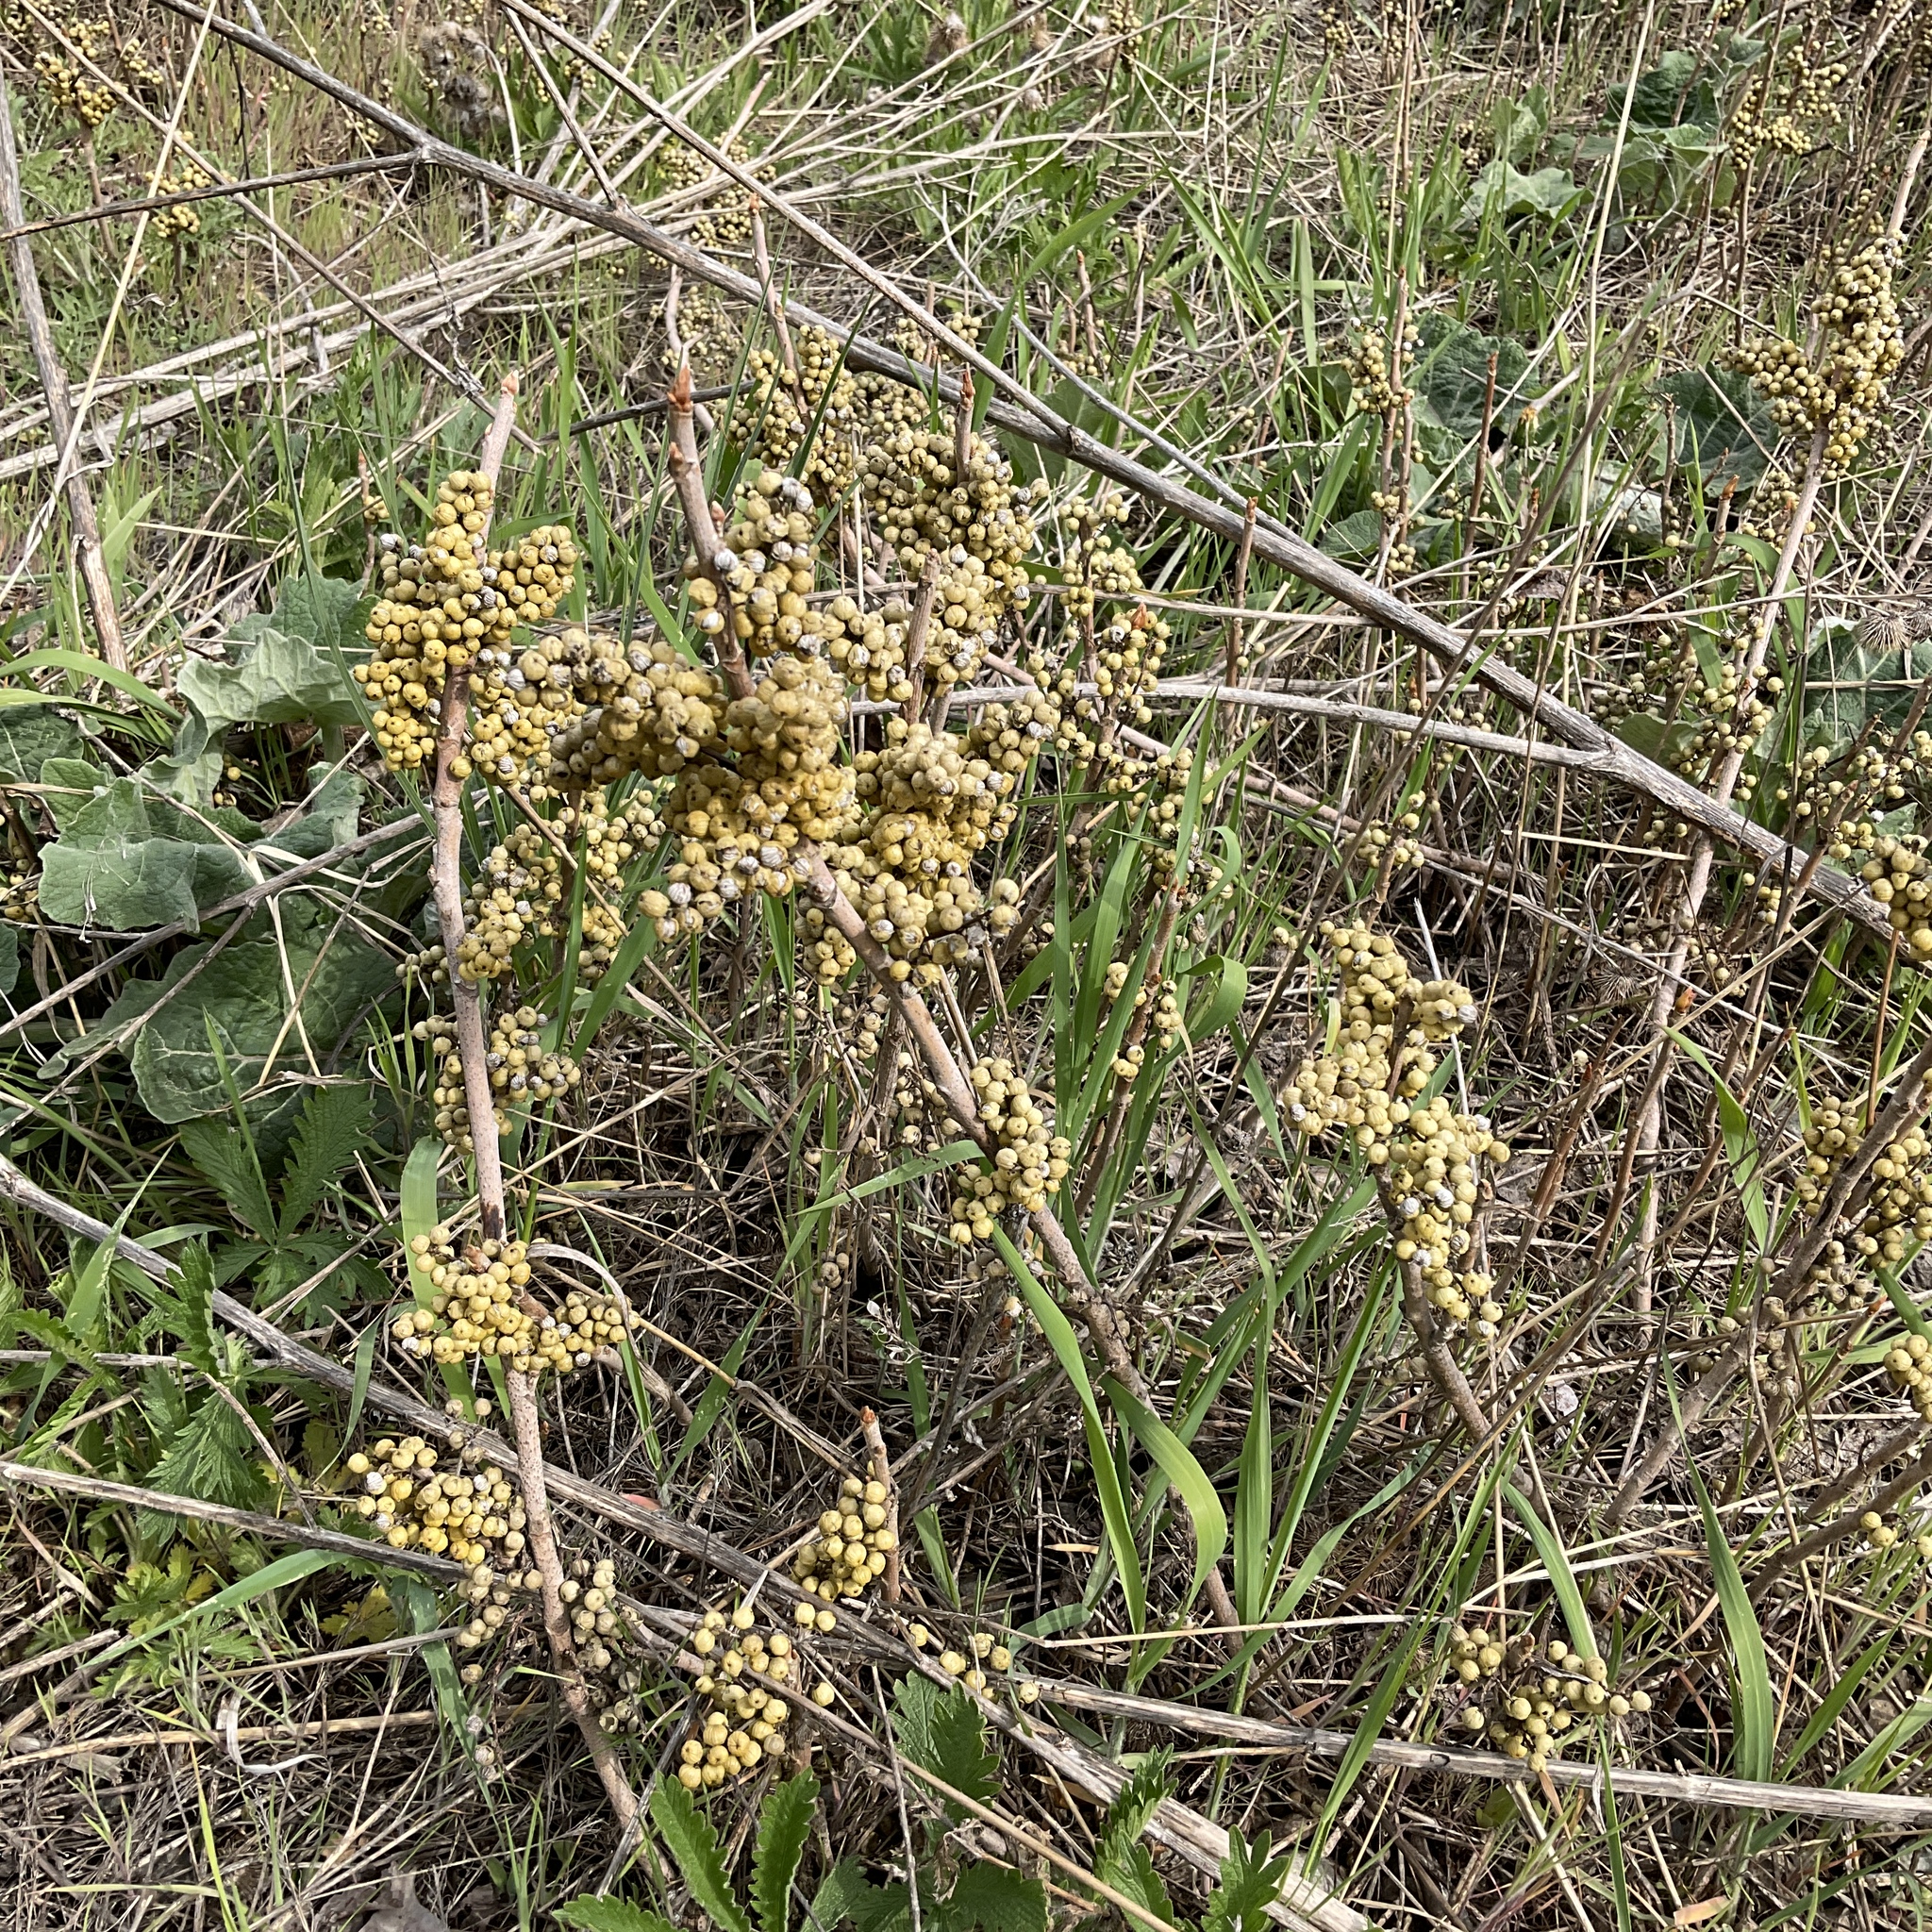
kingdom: Plantae
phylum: Tracheophyta
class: Magnoliopsida
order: Sapindales
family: Anacardiaceae
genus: Toxicodendron
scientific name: Toxicodendron rydbergii
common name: Rydberg's poison-ivy
